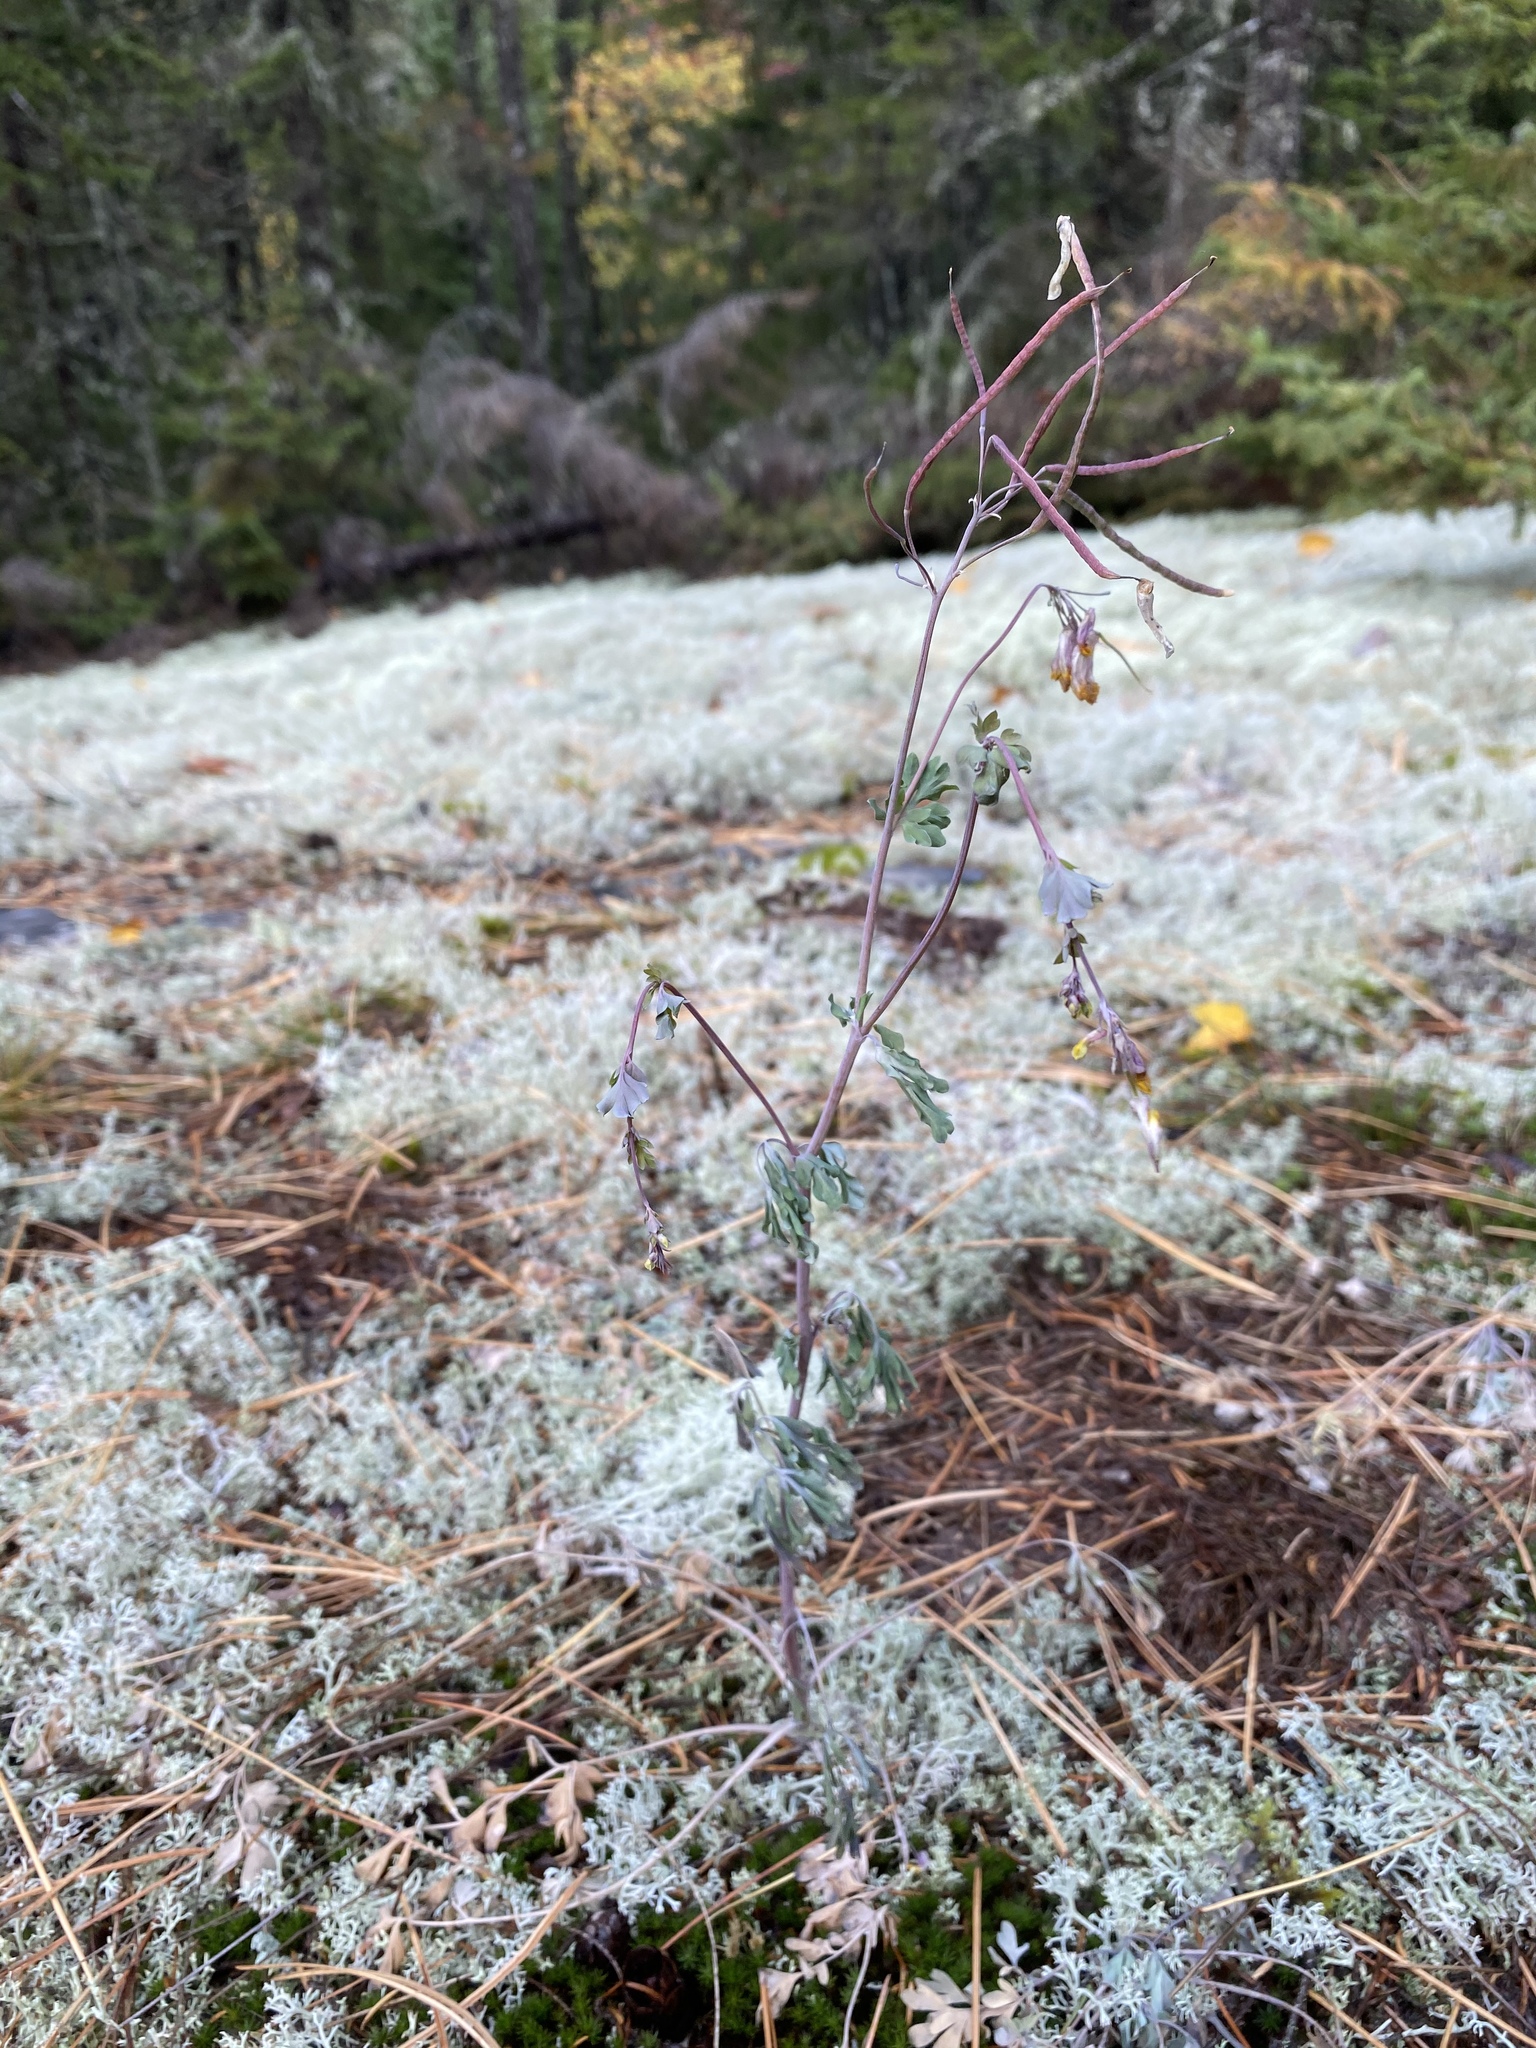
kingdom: Plantae
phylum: Tracheophyta
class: Magnoliopsida
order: Ranunculales
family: Papaveraceae
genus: Capnoides
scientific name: Capnoides sempervirens
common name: Rock harlequin
